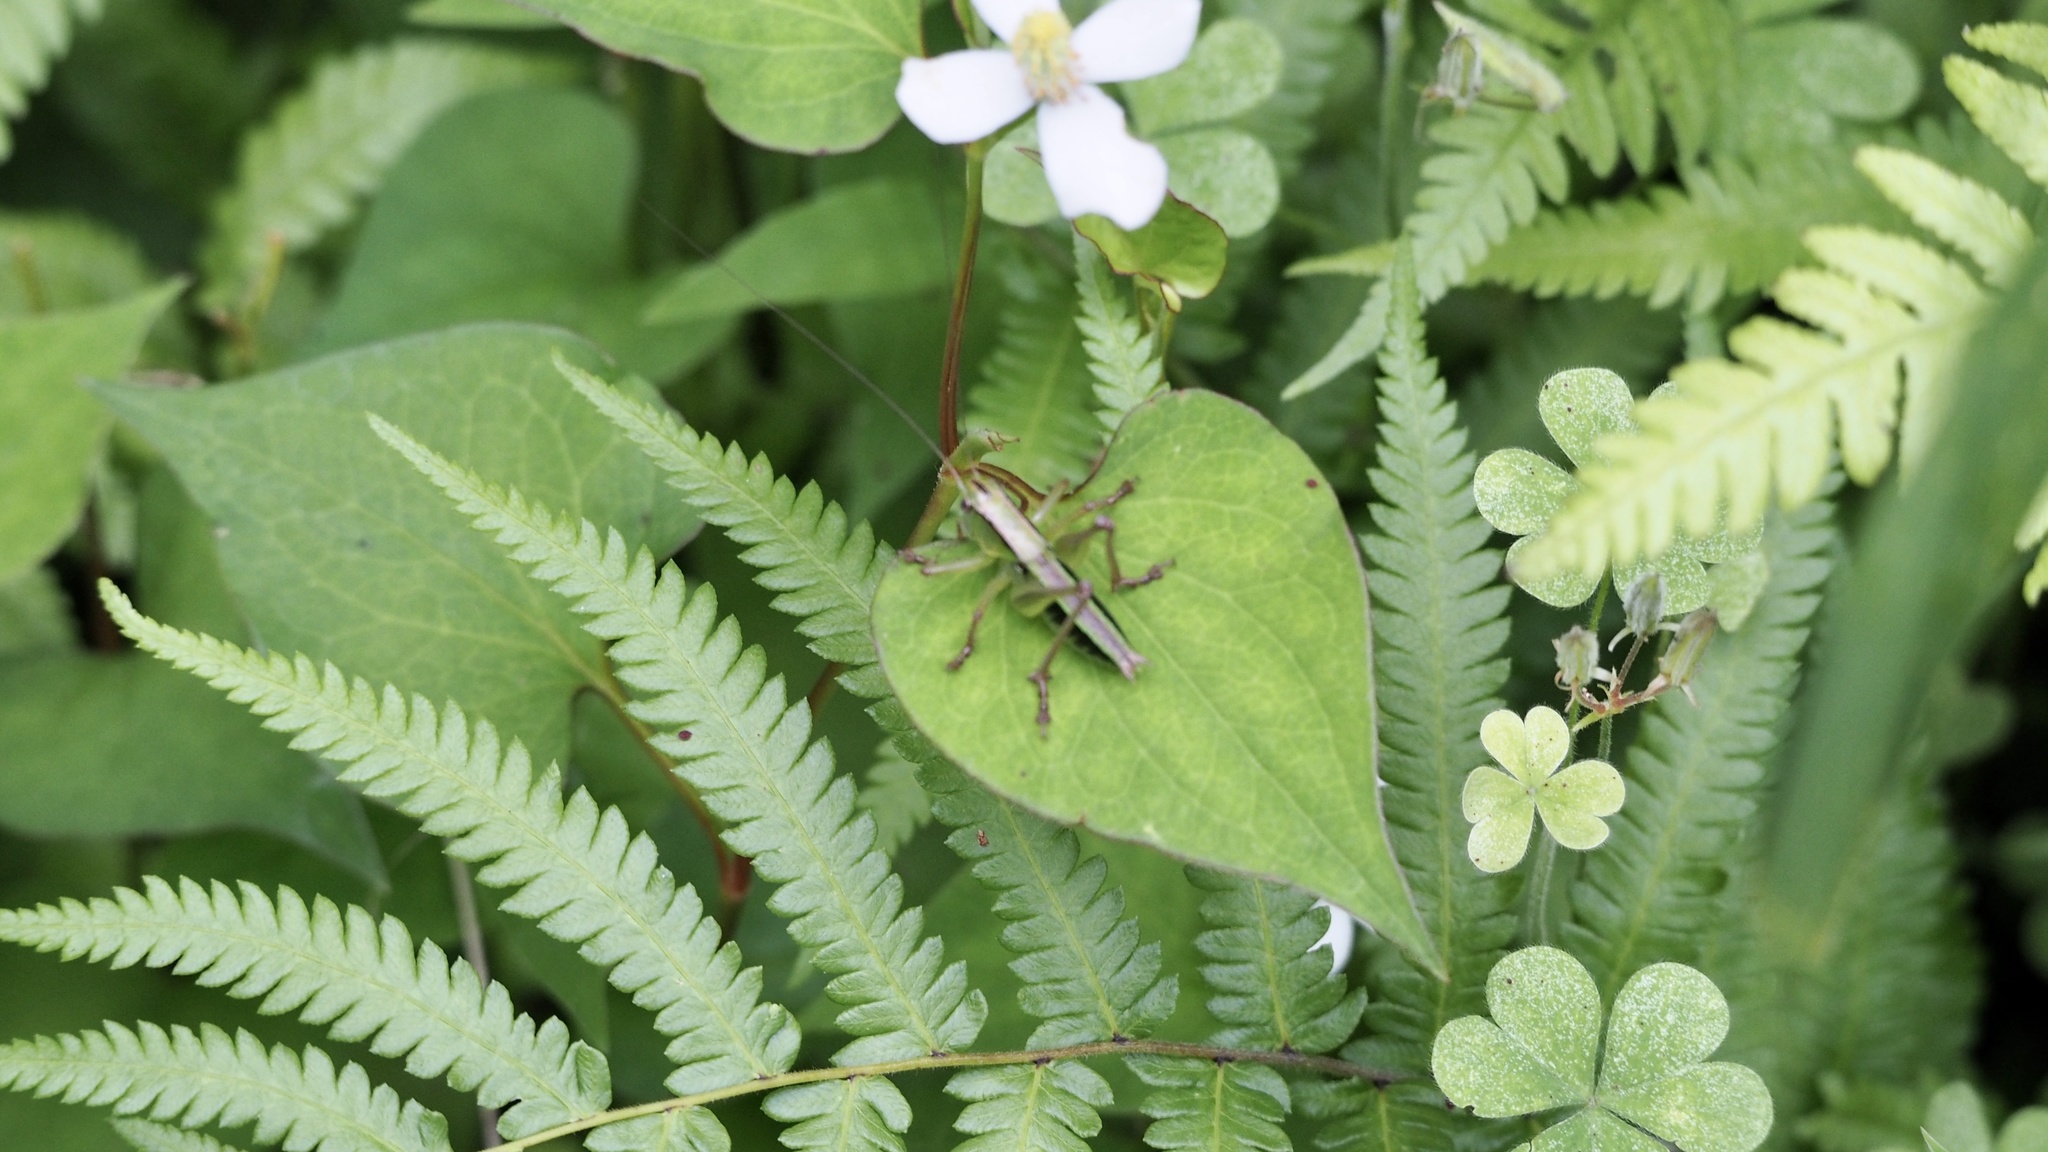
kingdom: Animalia
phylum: Arthropoda
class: Insecta
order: Orthoptera
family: Tettigoniidae
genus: Gampsocleis
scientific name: Gampsocleis buergeri
